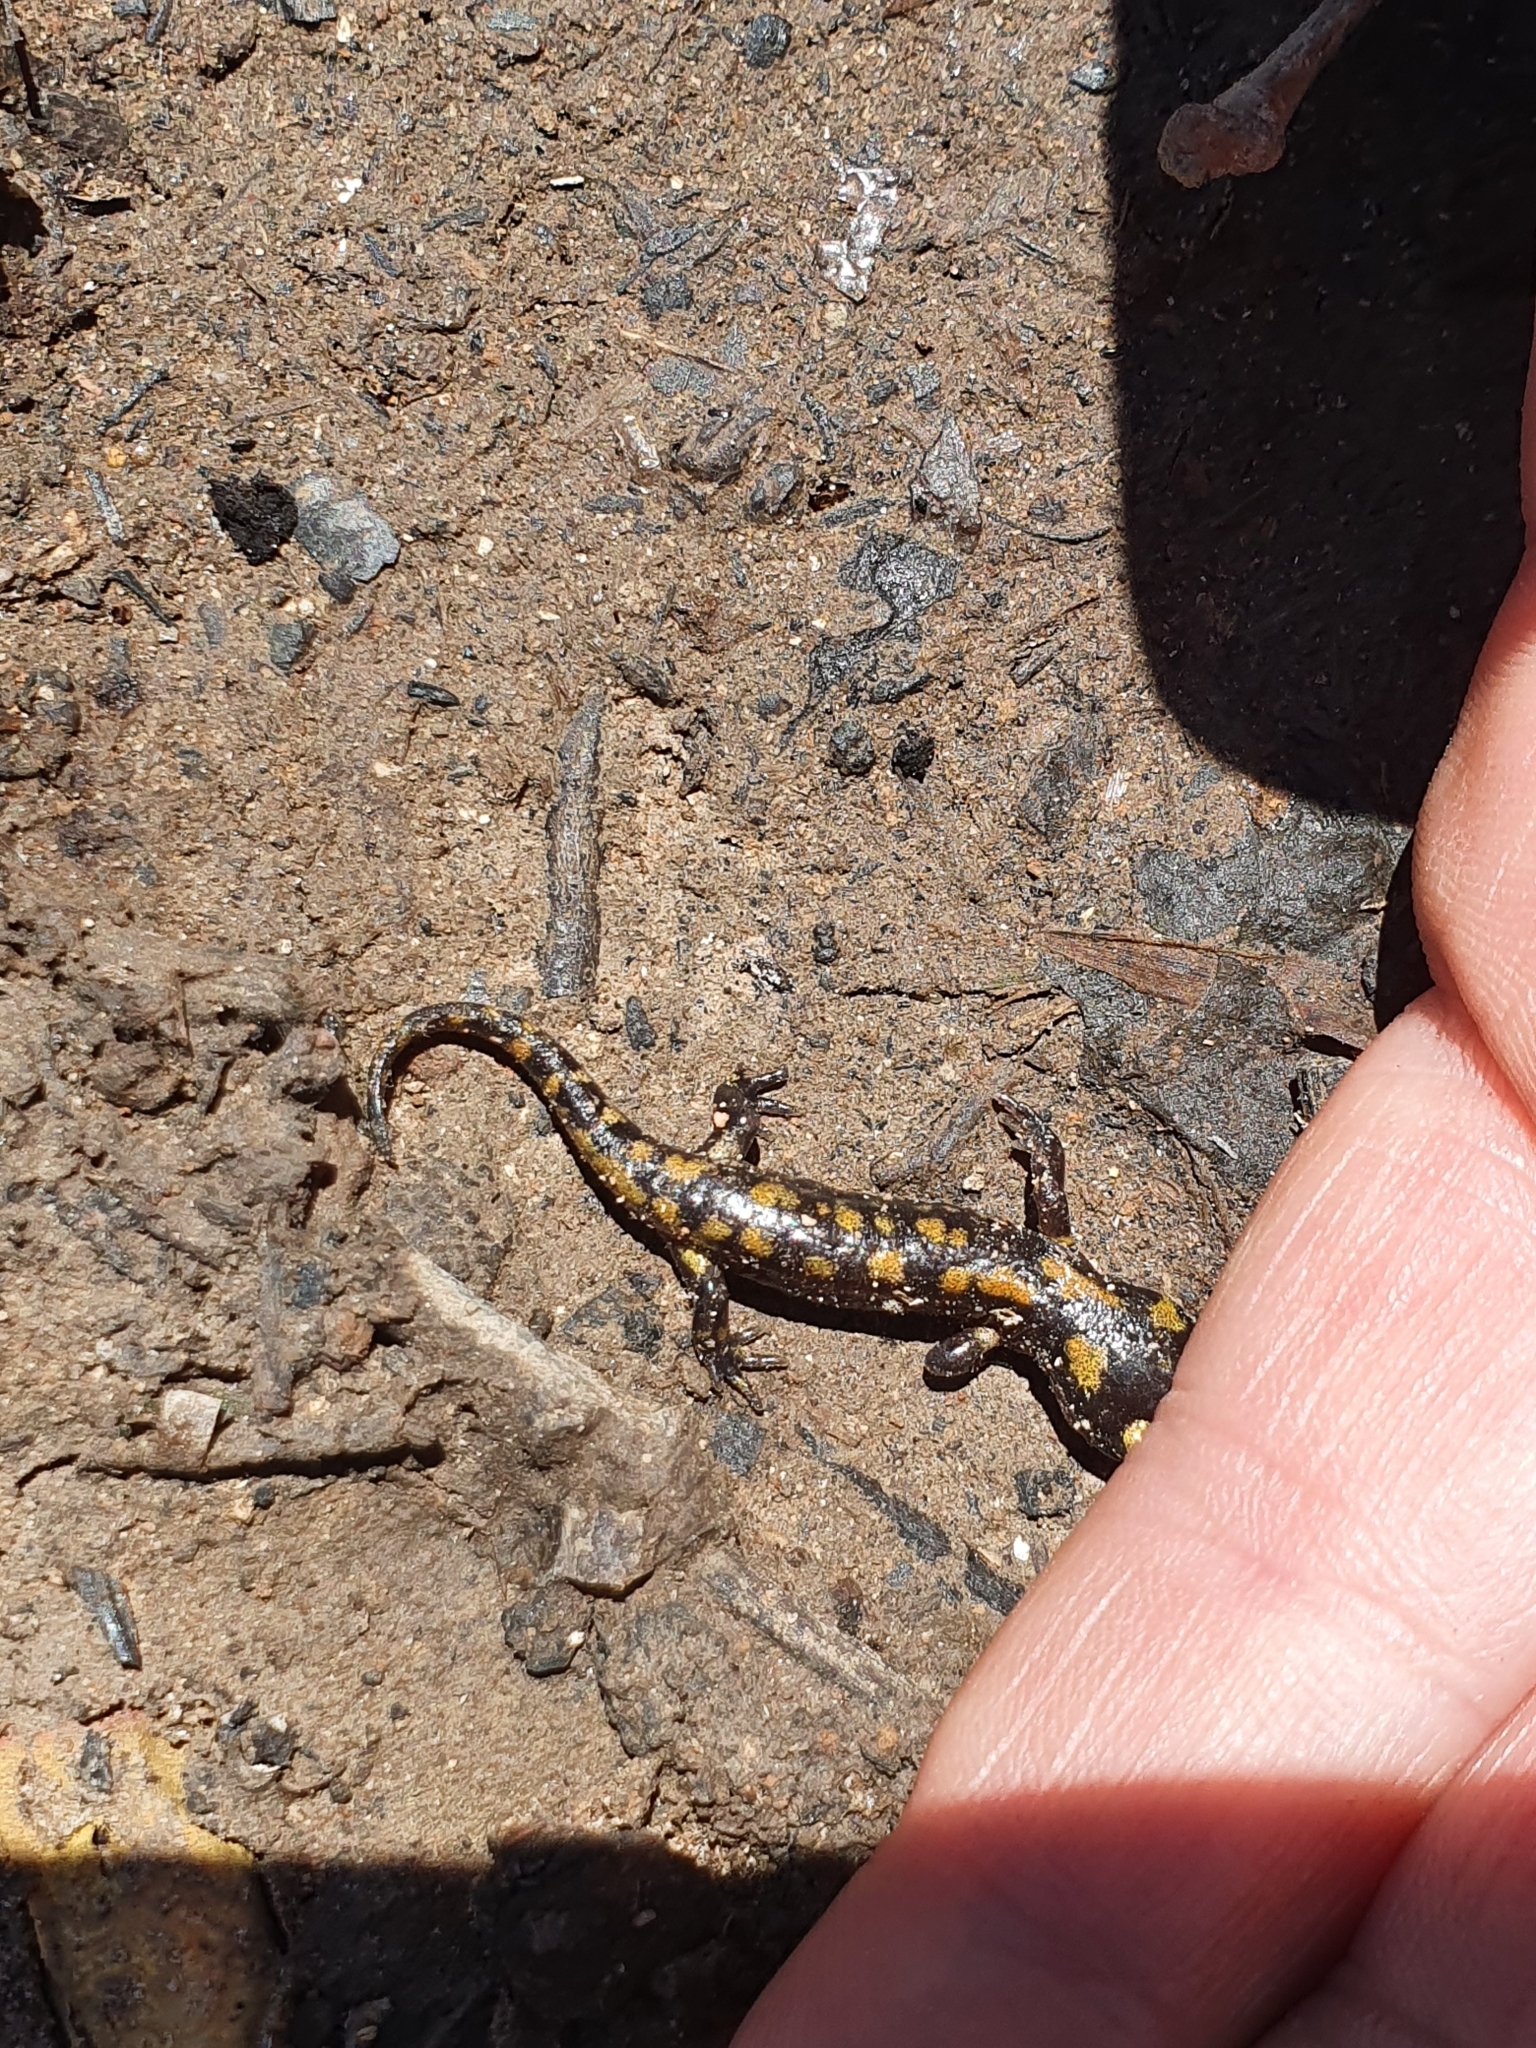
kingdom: Animalia
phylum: Chordata
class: Amphibia
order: Caudata
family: Salamandridae
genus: Salamandra
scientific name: Salamandra algira
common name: North african fire salamander
